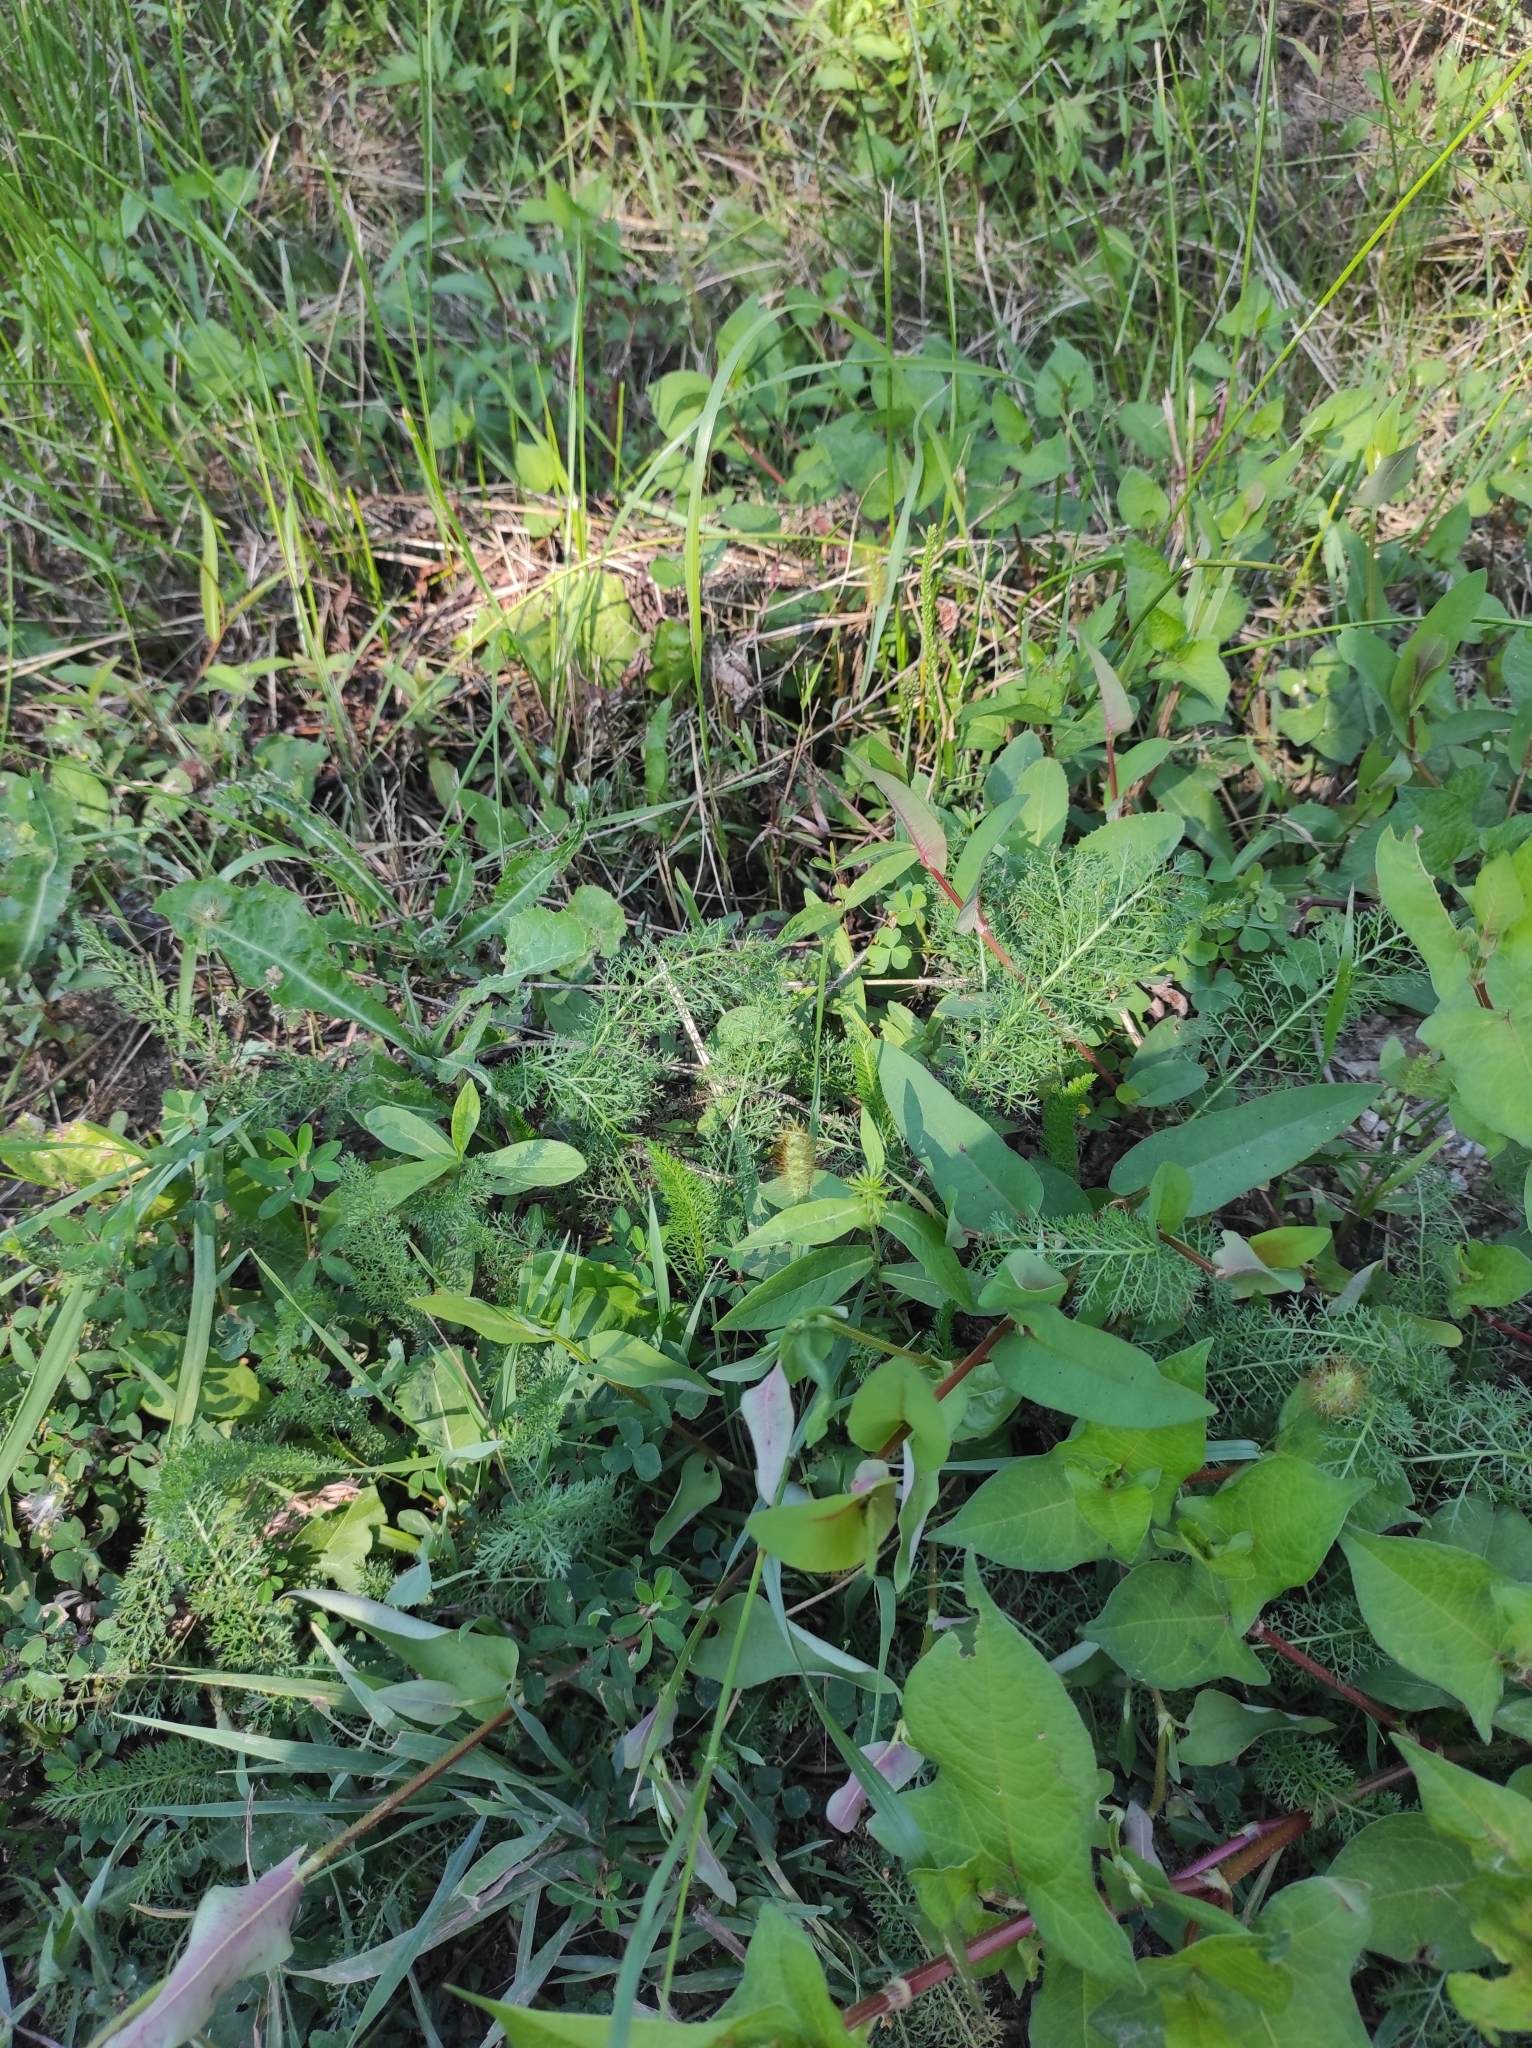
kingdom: Plantae
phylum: Tracheophyta
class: Magnoliopsida
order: Asterales
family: Asteraceae
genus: Achillea
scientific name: Achillea millefolium
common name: Yarrow
